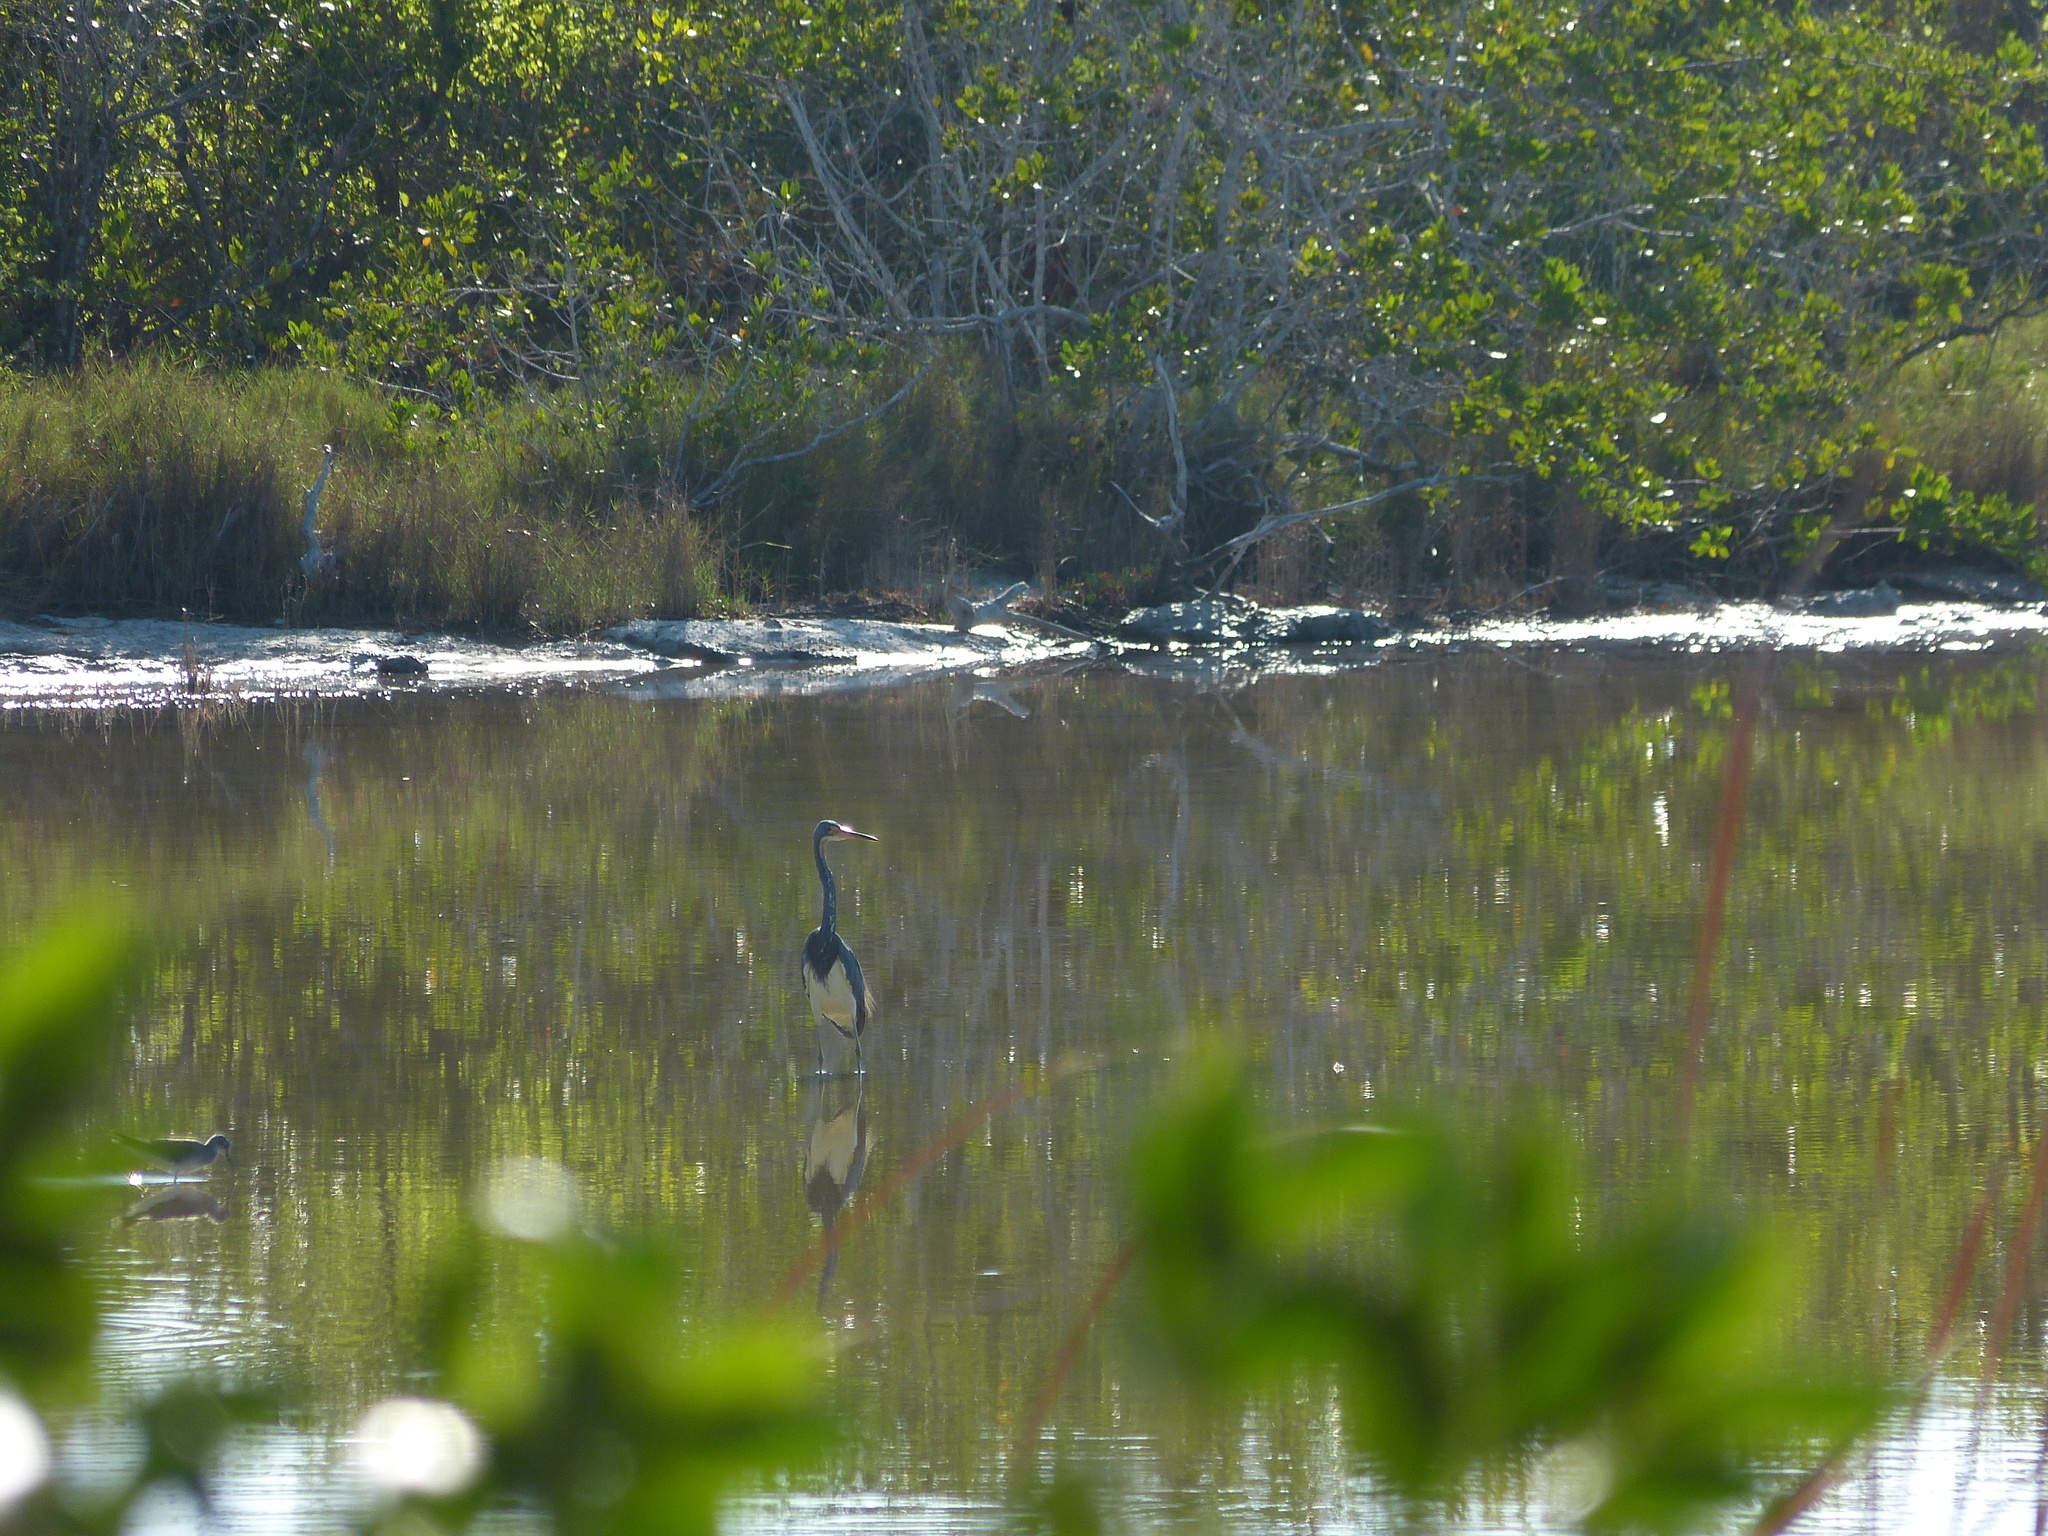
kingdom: Animalia
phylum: Chordata
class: Aves
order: Pelecaniformes
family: Ardeidae
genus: Egretta
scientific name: Egretta tricolor
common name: Tricolored heron
